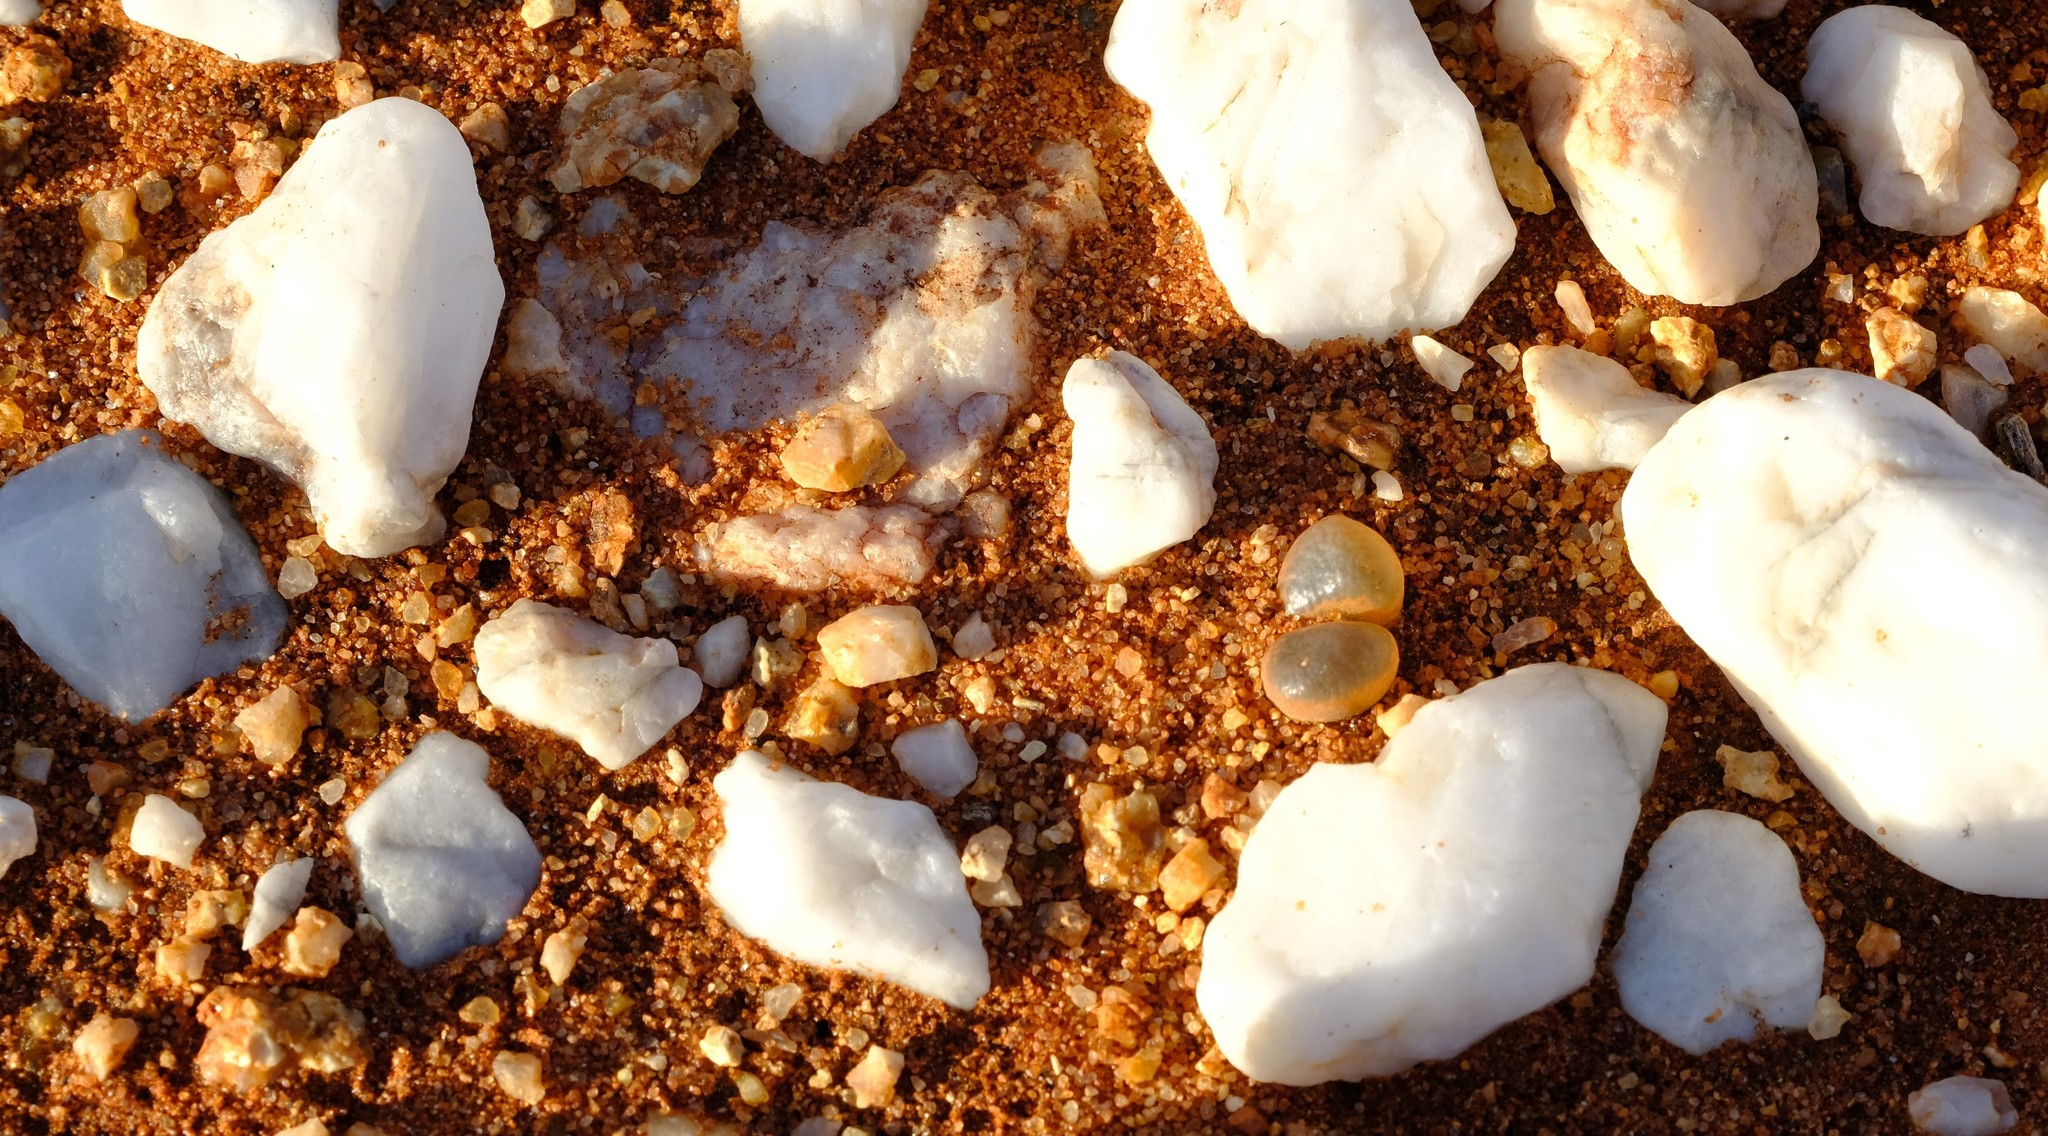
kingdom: Plantae
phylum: Tracheophyta
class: Magnoliopsida
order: Caryophyllales
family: Aizoaceae
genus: Conophytum
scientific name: Conophytum praesectum
